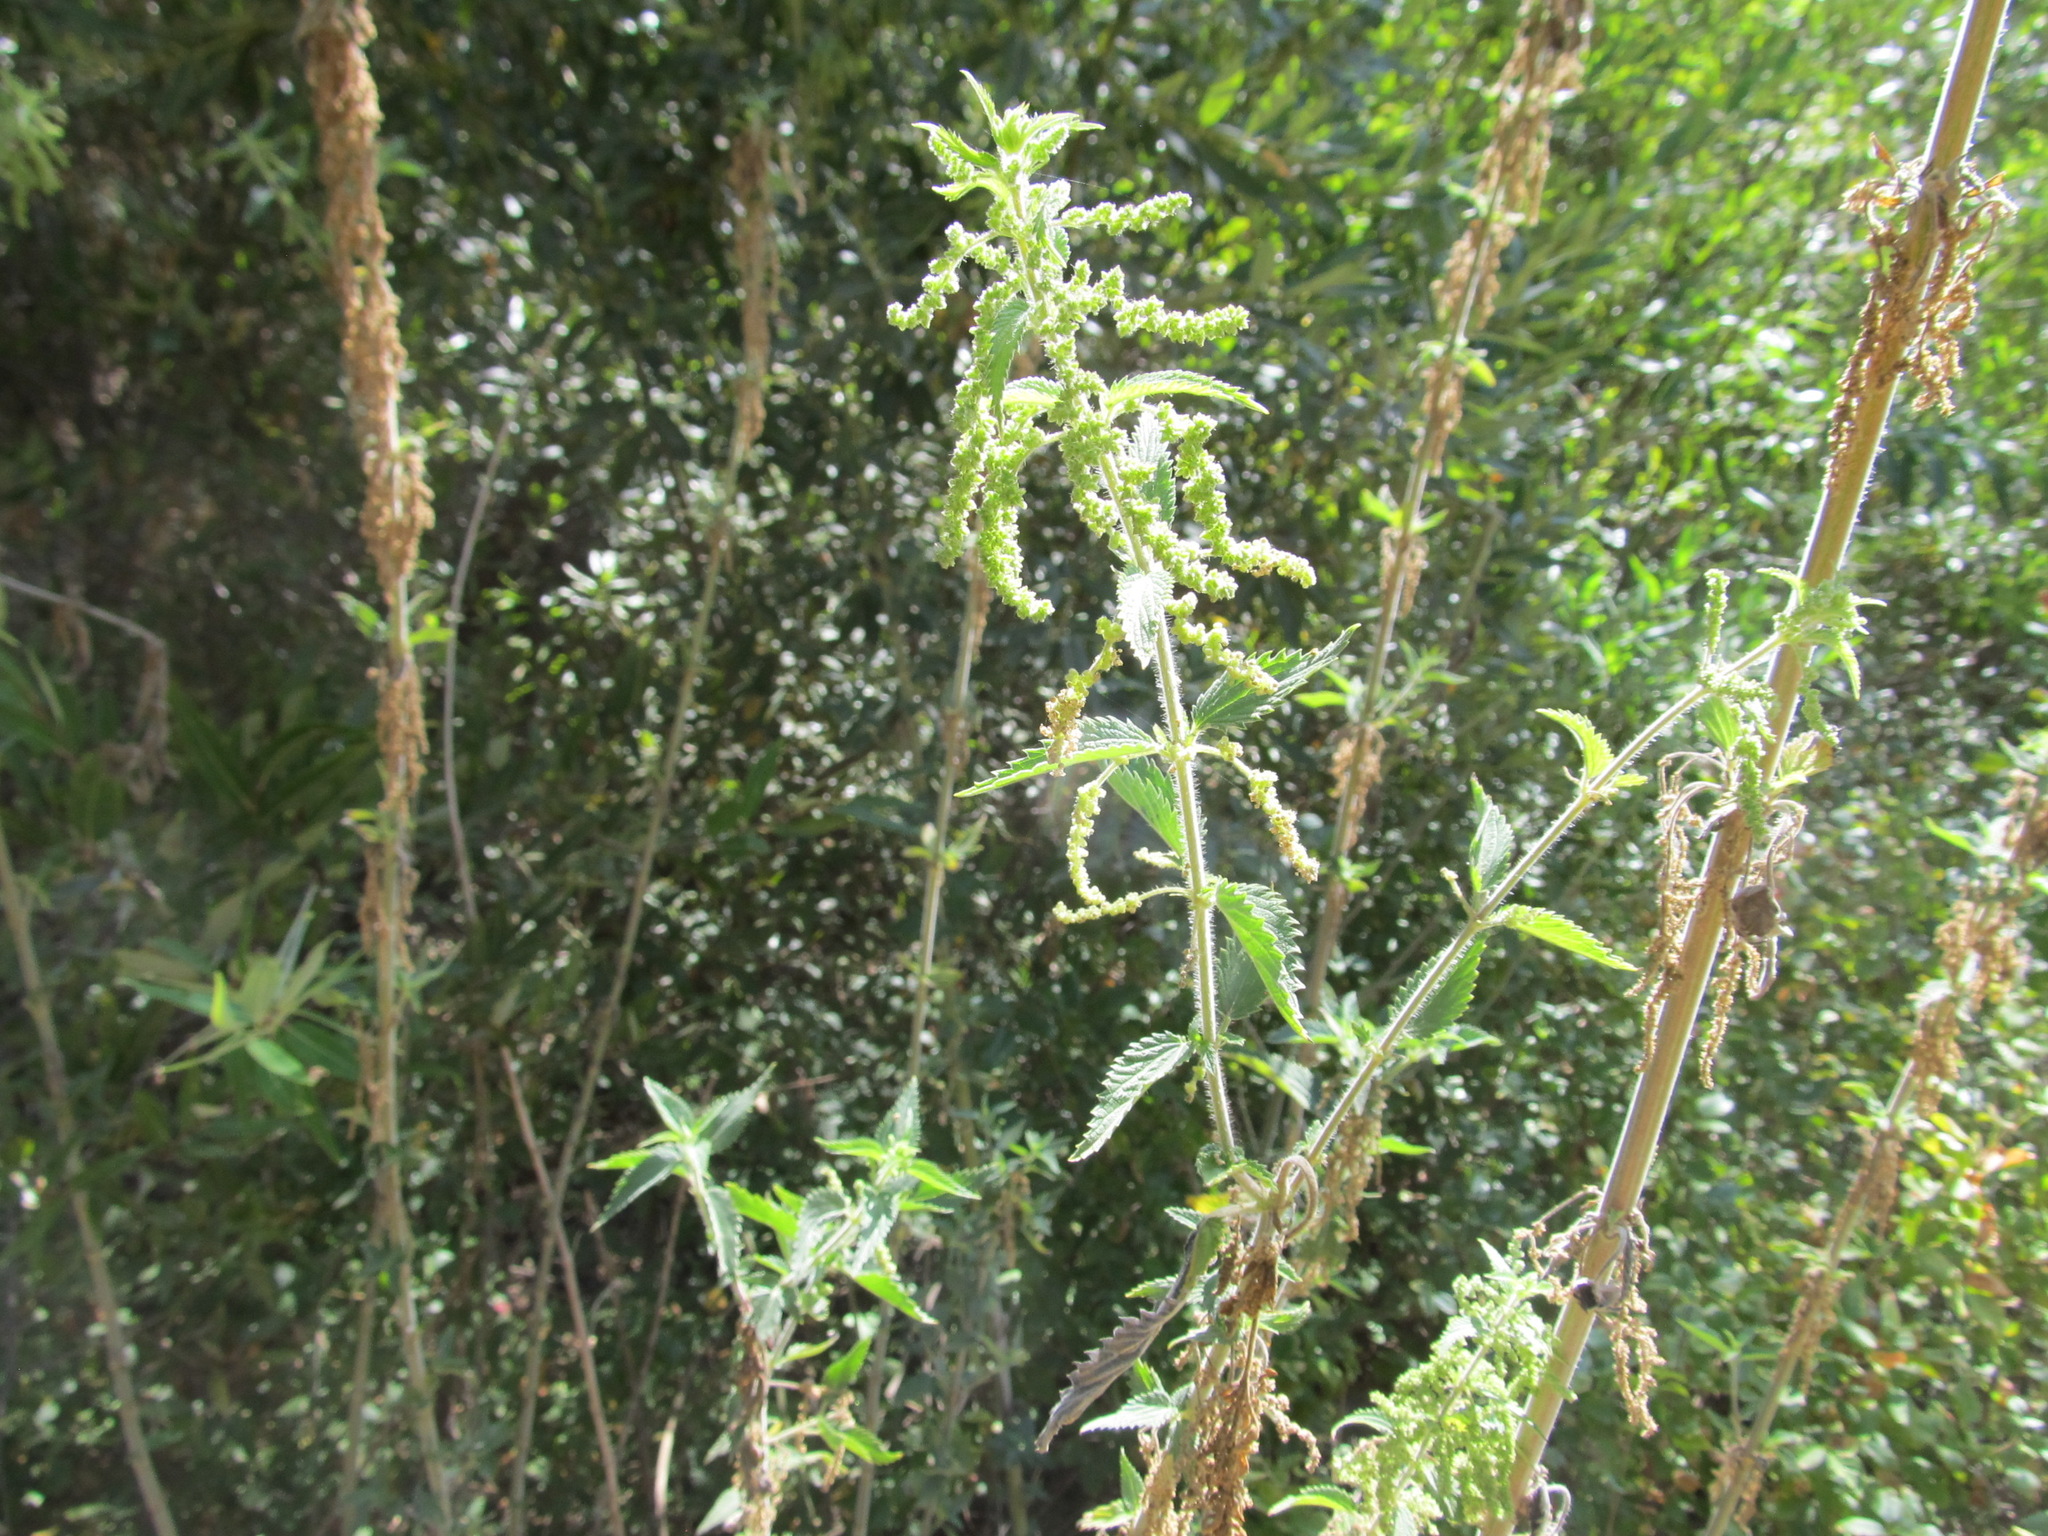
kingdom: Plantae
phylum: Tracheophyta
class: Magnoliopsida
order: Rosales
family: Urticaceae
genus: Urtica
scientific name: Urtica dioica
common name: Common nettle
